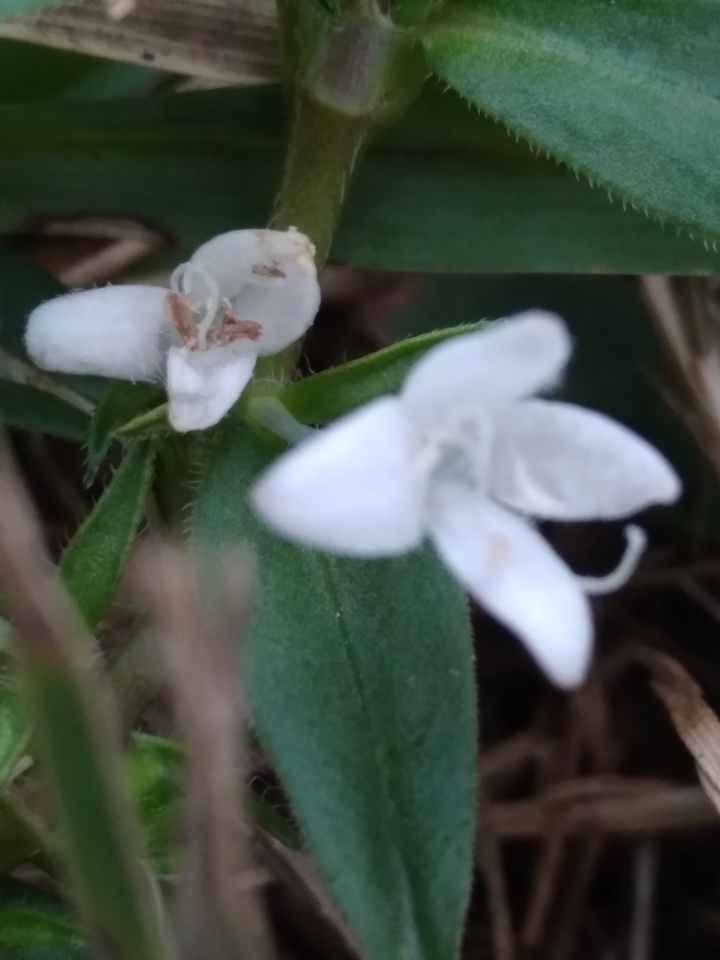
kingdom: Plantae
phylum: Tracheophyta
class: Magnoliopsida
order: Gentianales
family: Rubiaceae
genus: Diodia
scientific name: Diodia virginiana
